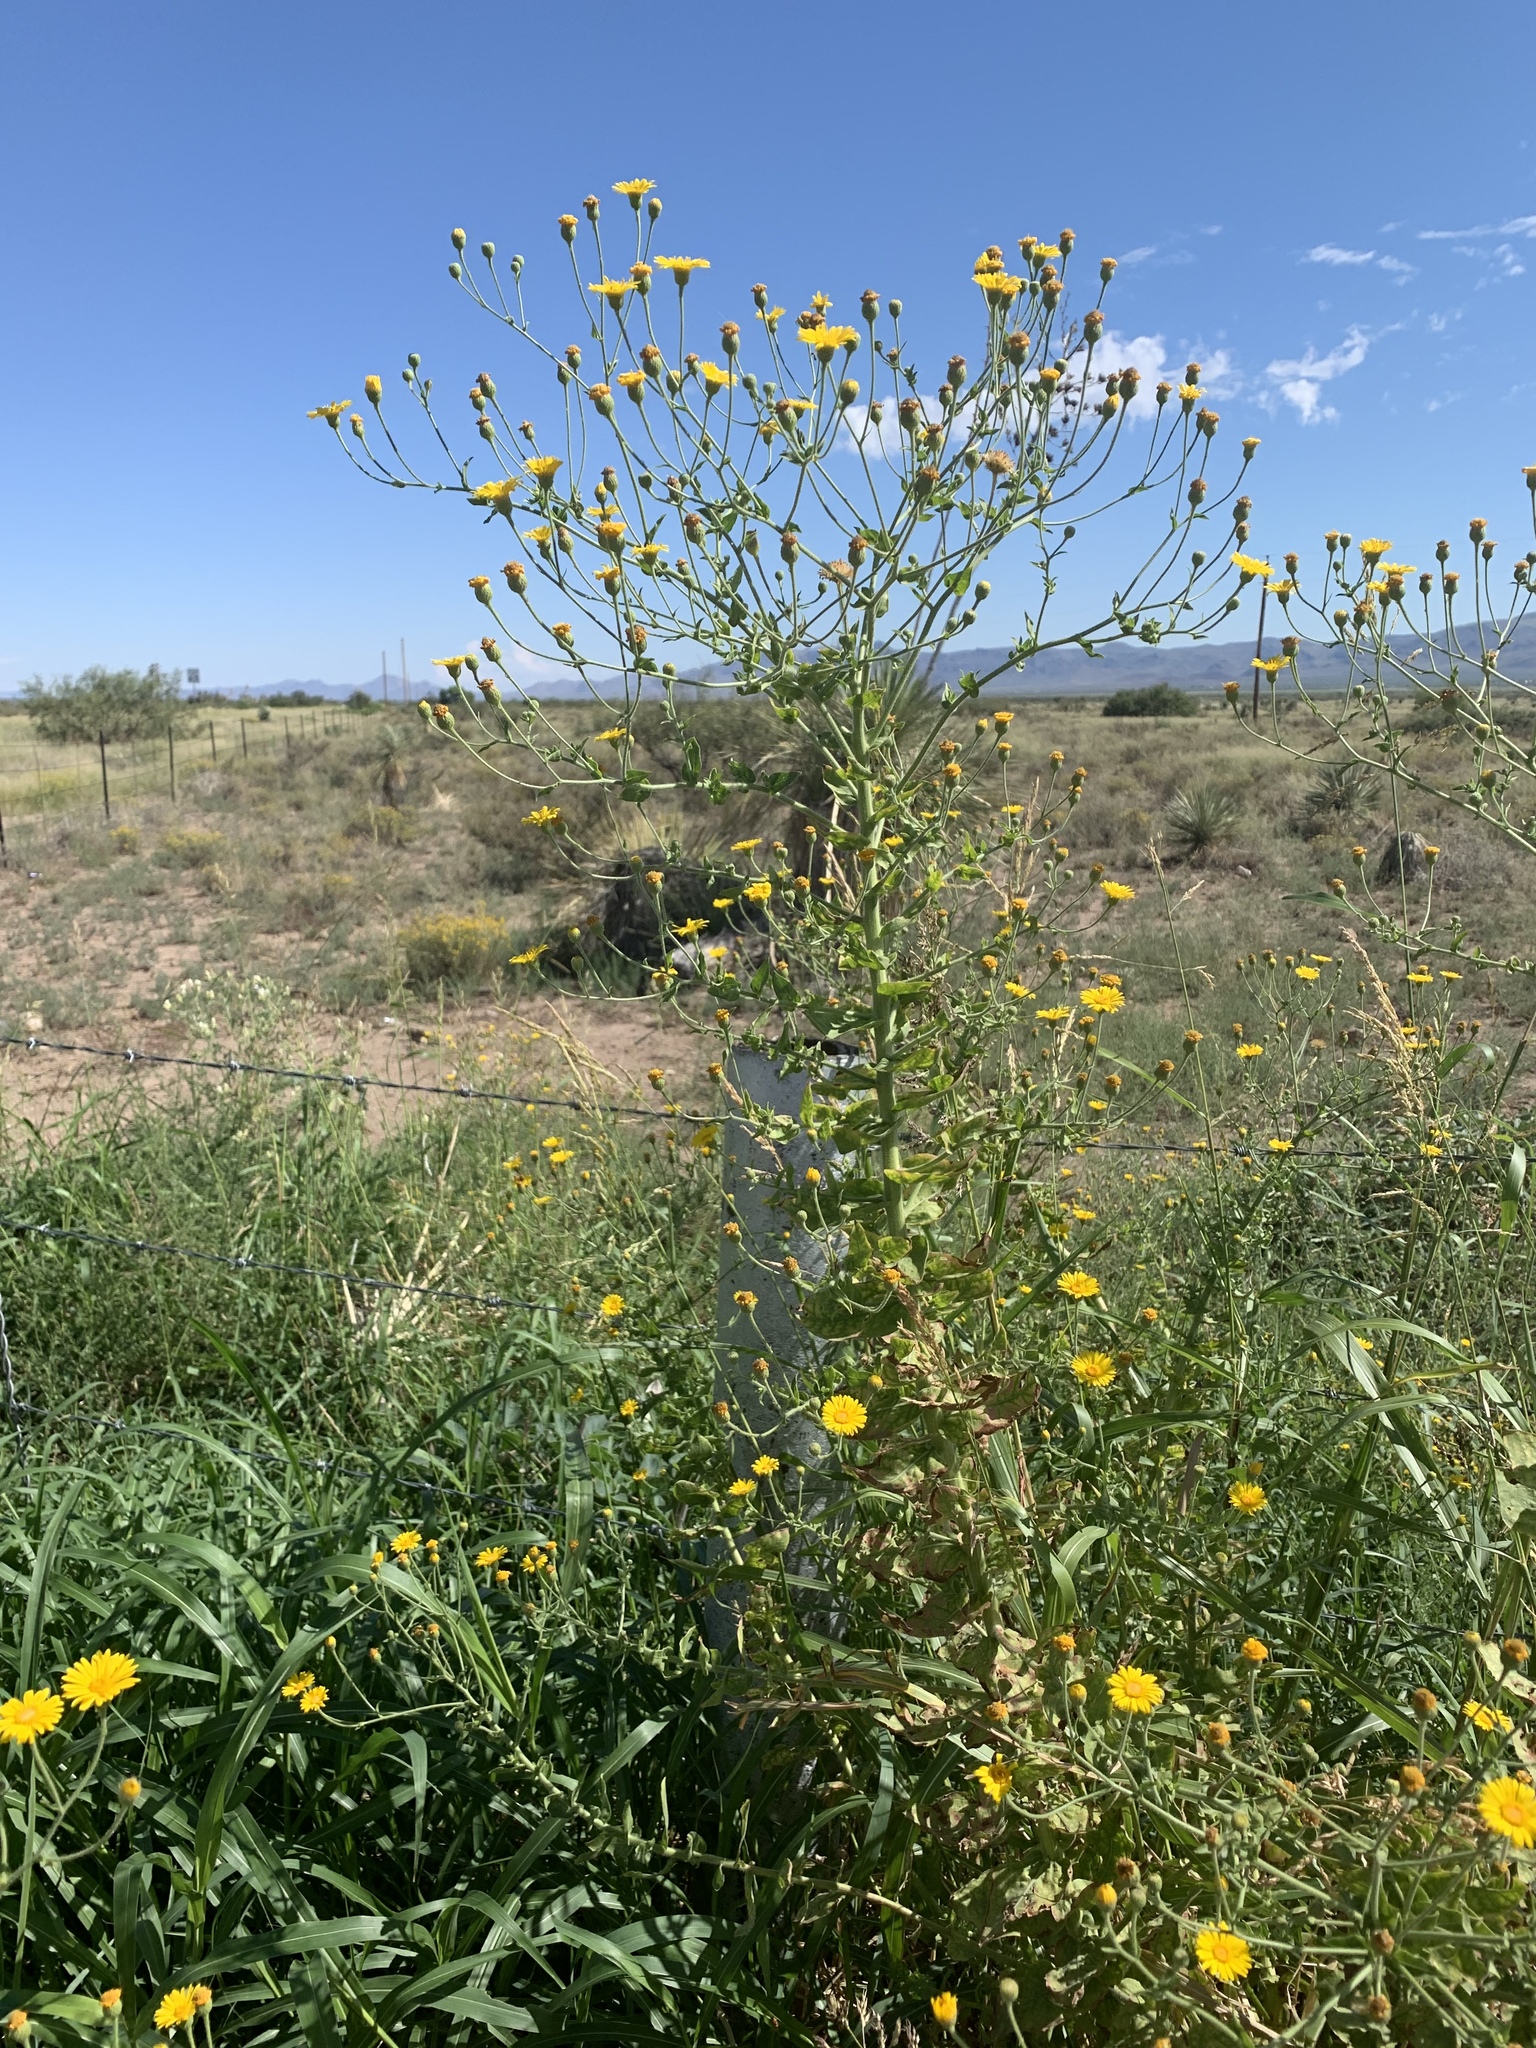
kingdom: Plantae
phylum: Tracheophyta
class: Magnoliopsida
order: Asterales
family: Asteraceae
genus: Heterotheca
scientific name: Heterotheca subaxillaris
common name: Camphorweed
